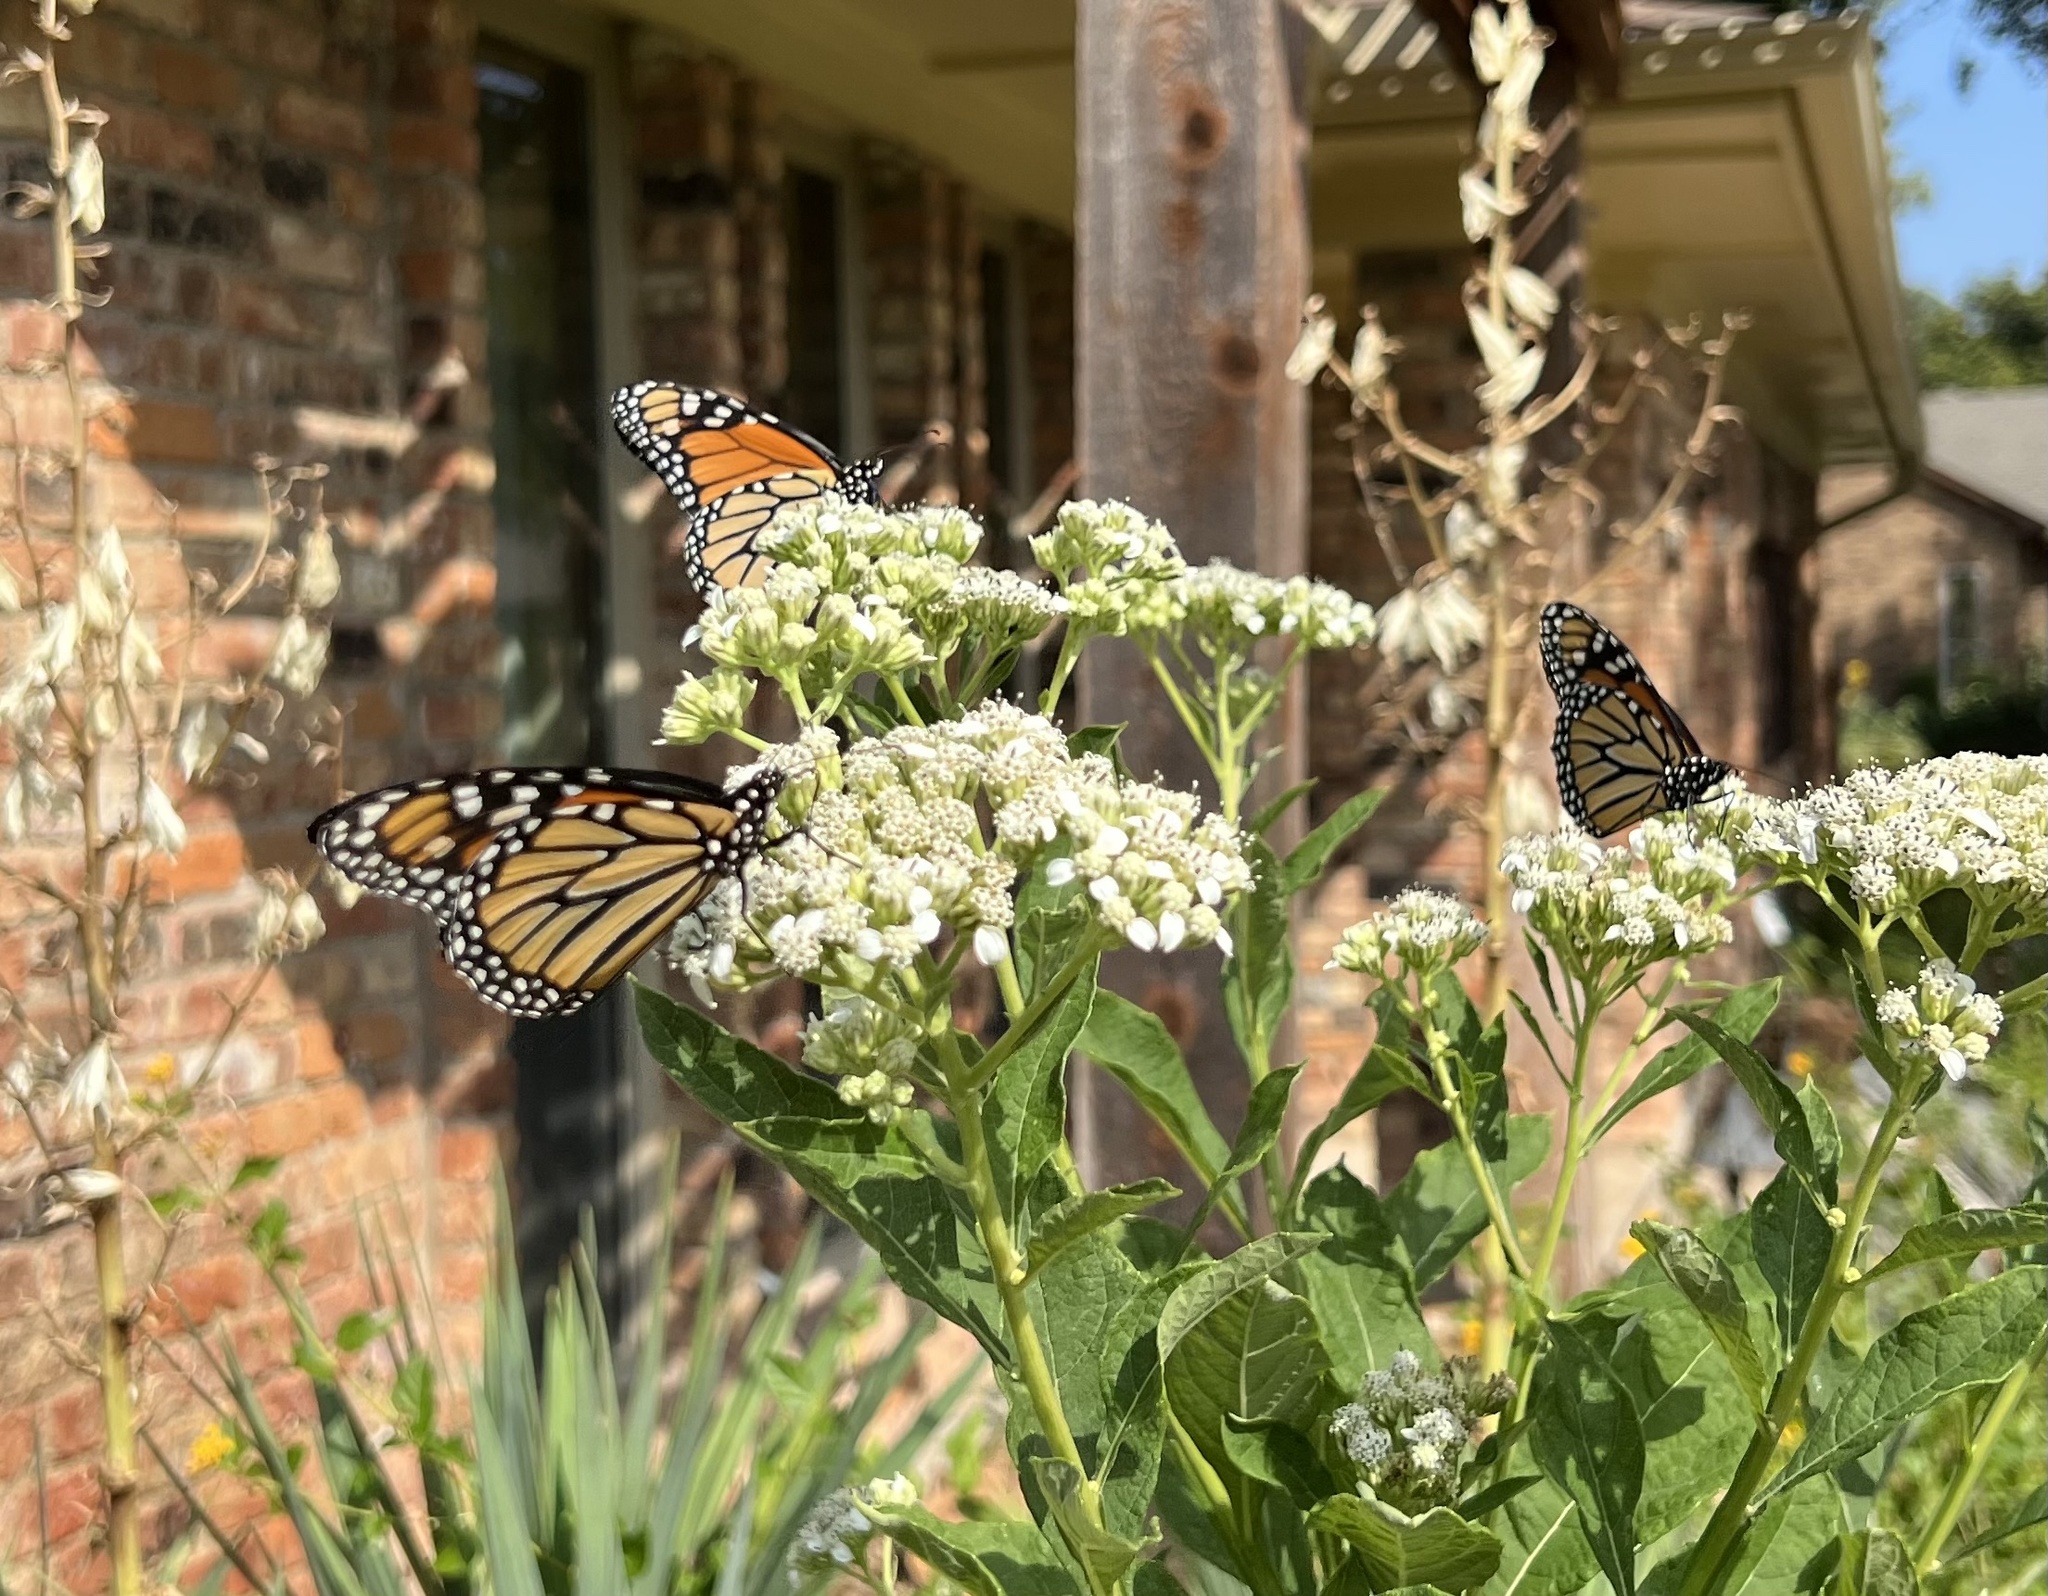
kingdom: Animalia
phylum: Arthropoda
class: Insecta
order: Lepidoptera
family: Nymphalidae
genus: Danaus
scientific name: Danaus plexippus
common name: Monarch
